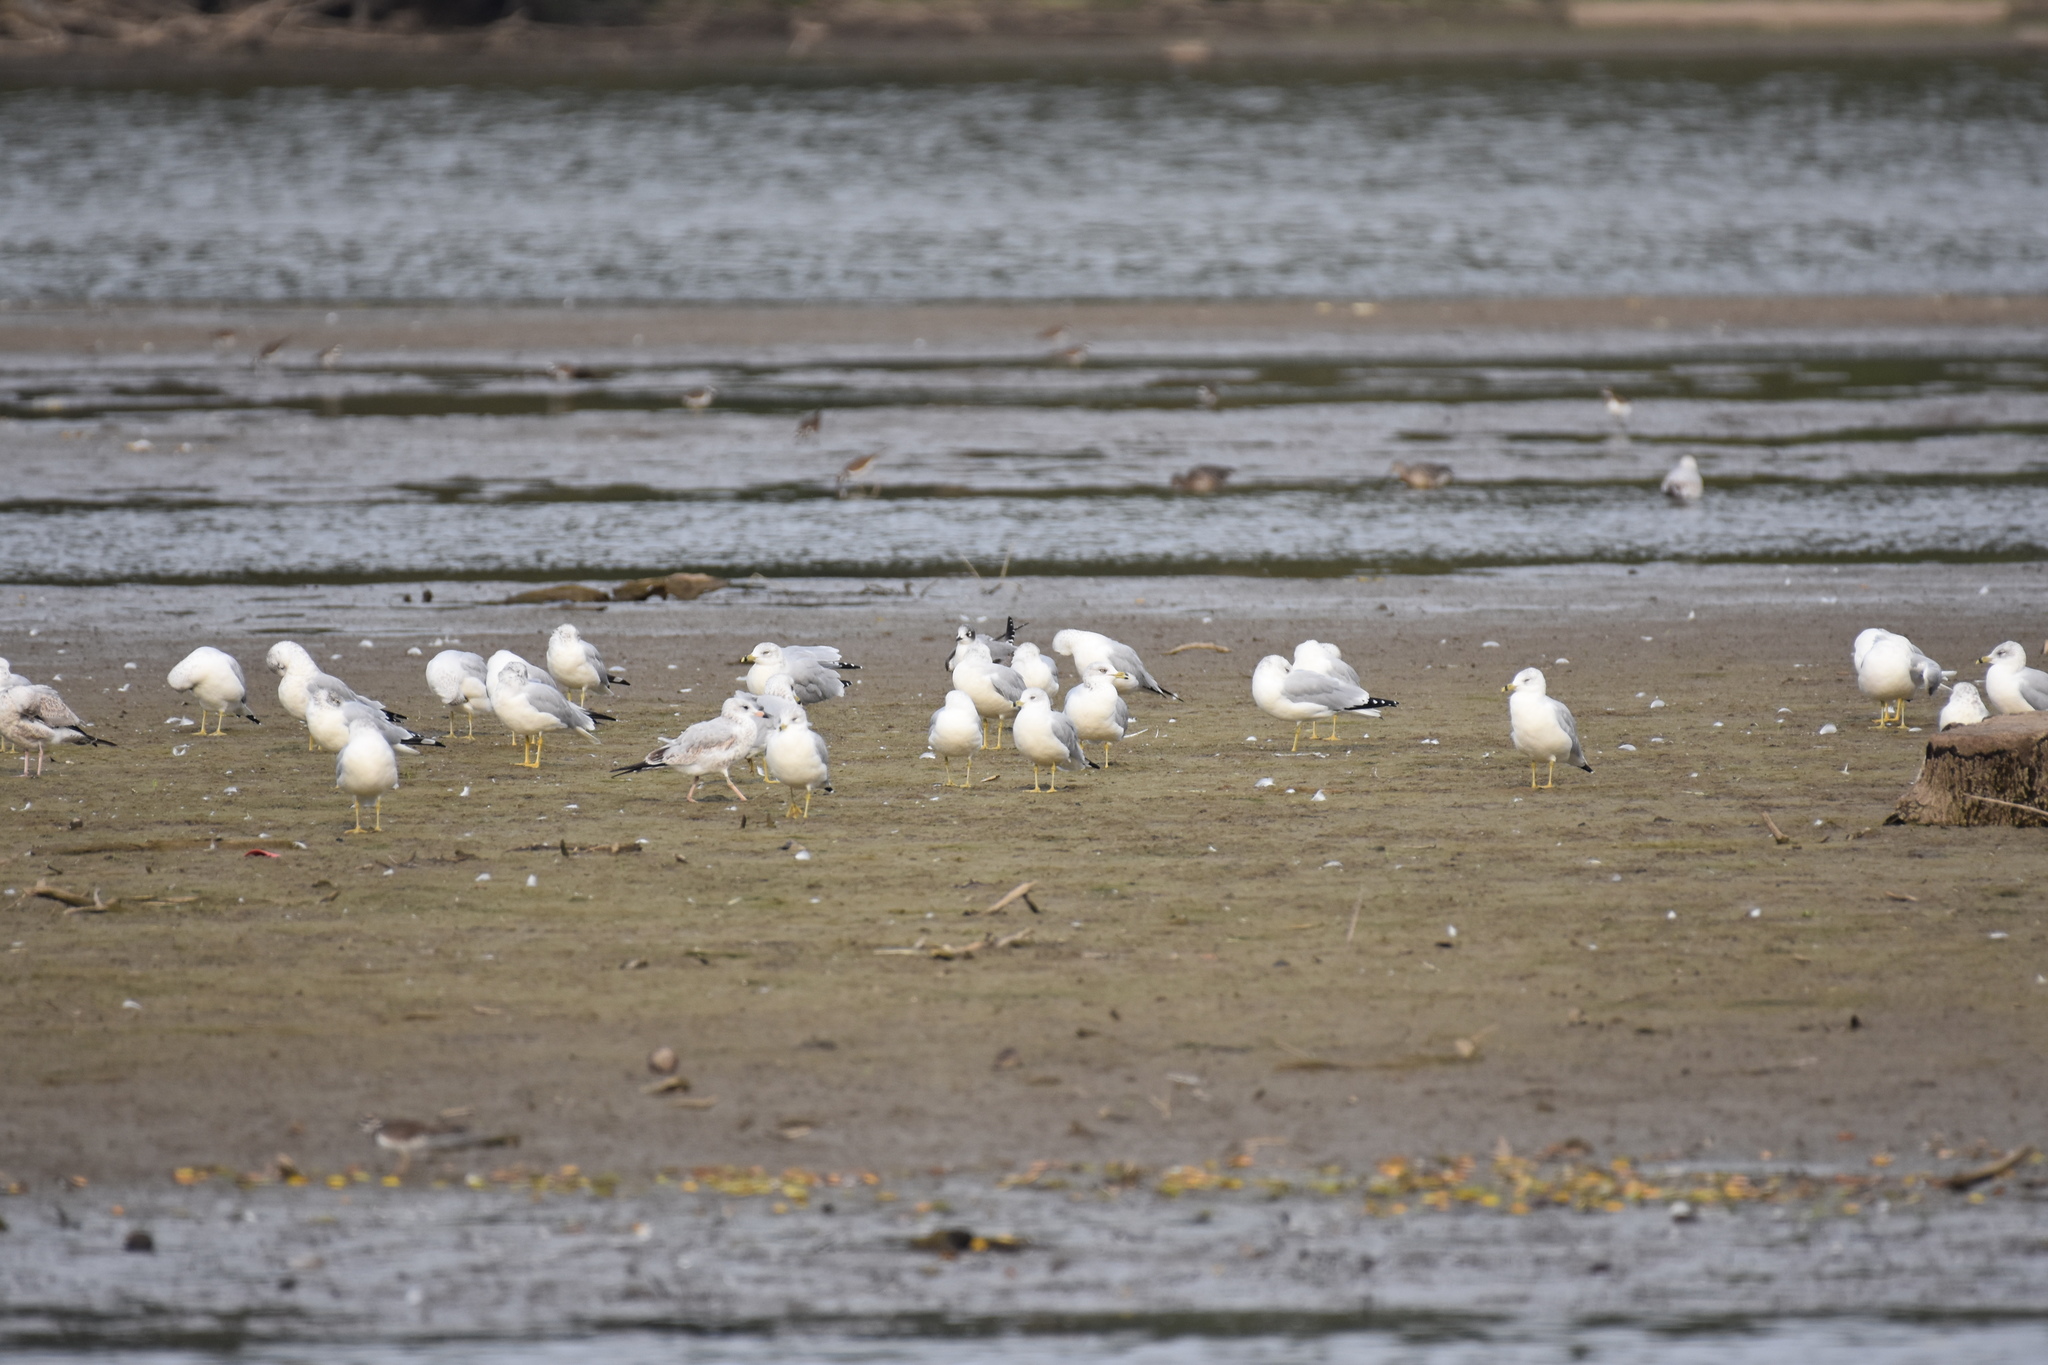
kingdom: Animalia
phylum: Chordata
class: Aves
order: Charadriiformes
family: Laridae
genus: Leucophaeus
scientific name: Leucophaeus pipixcan
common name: Franklin's gull
